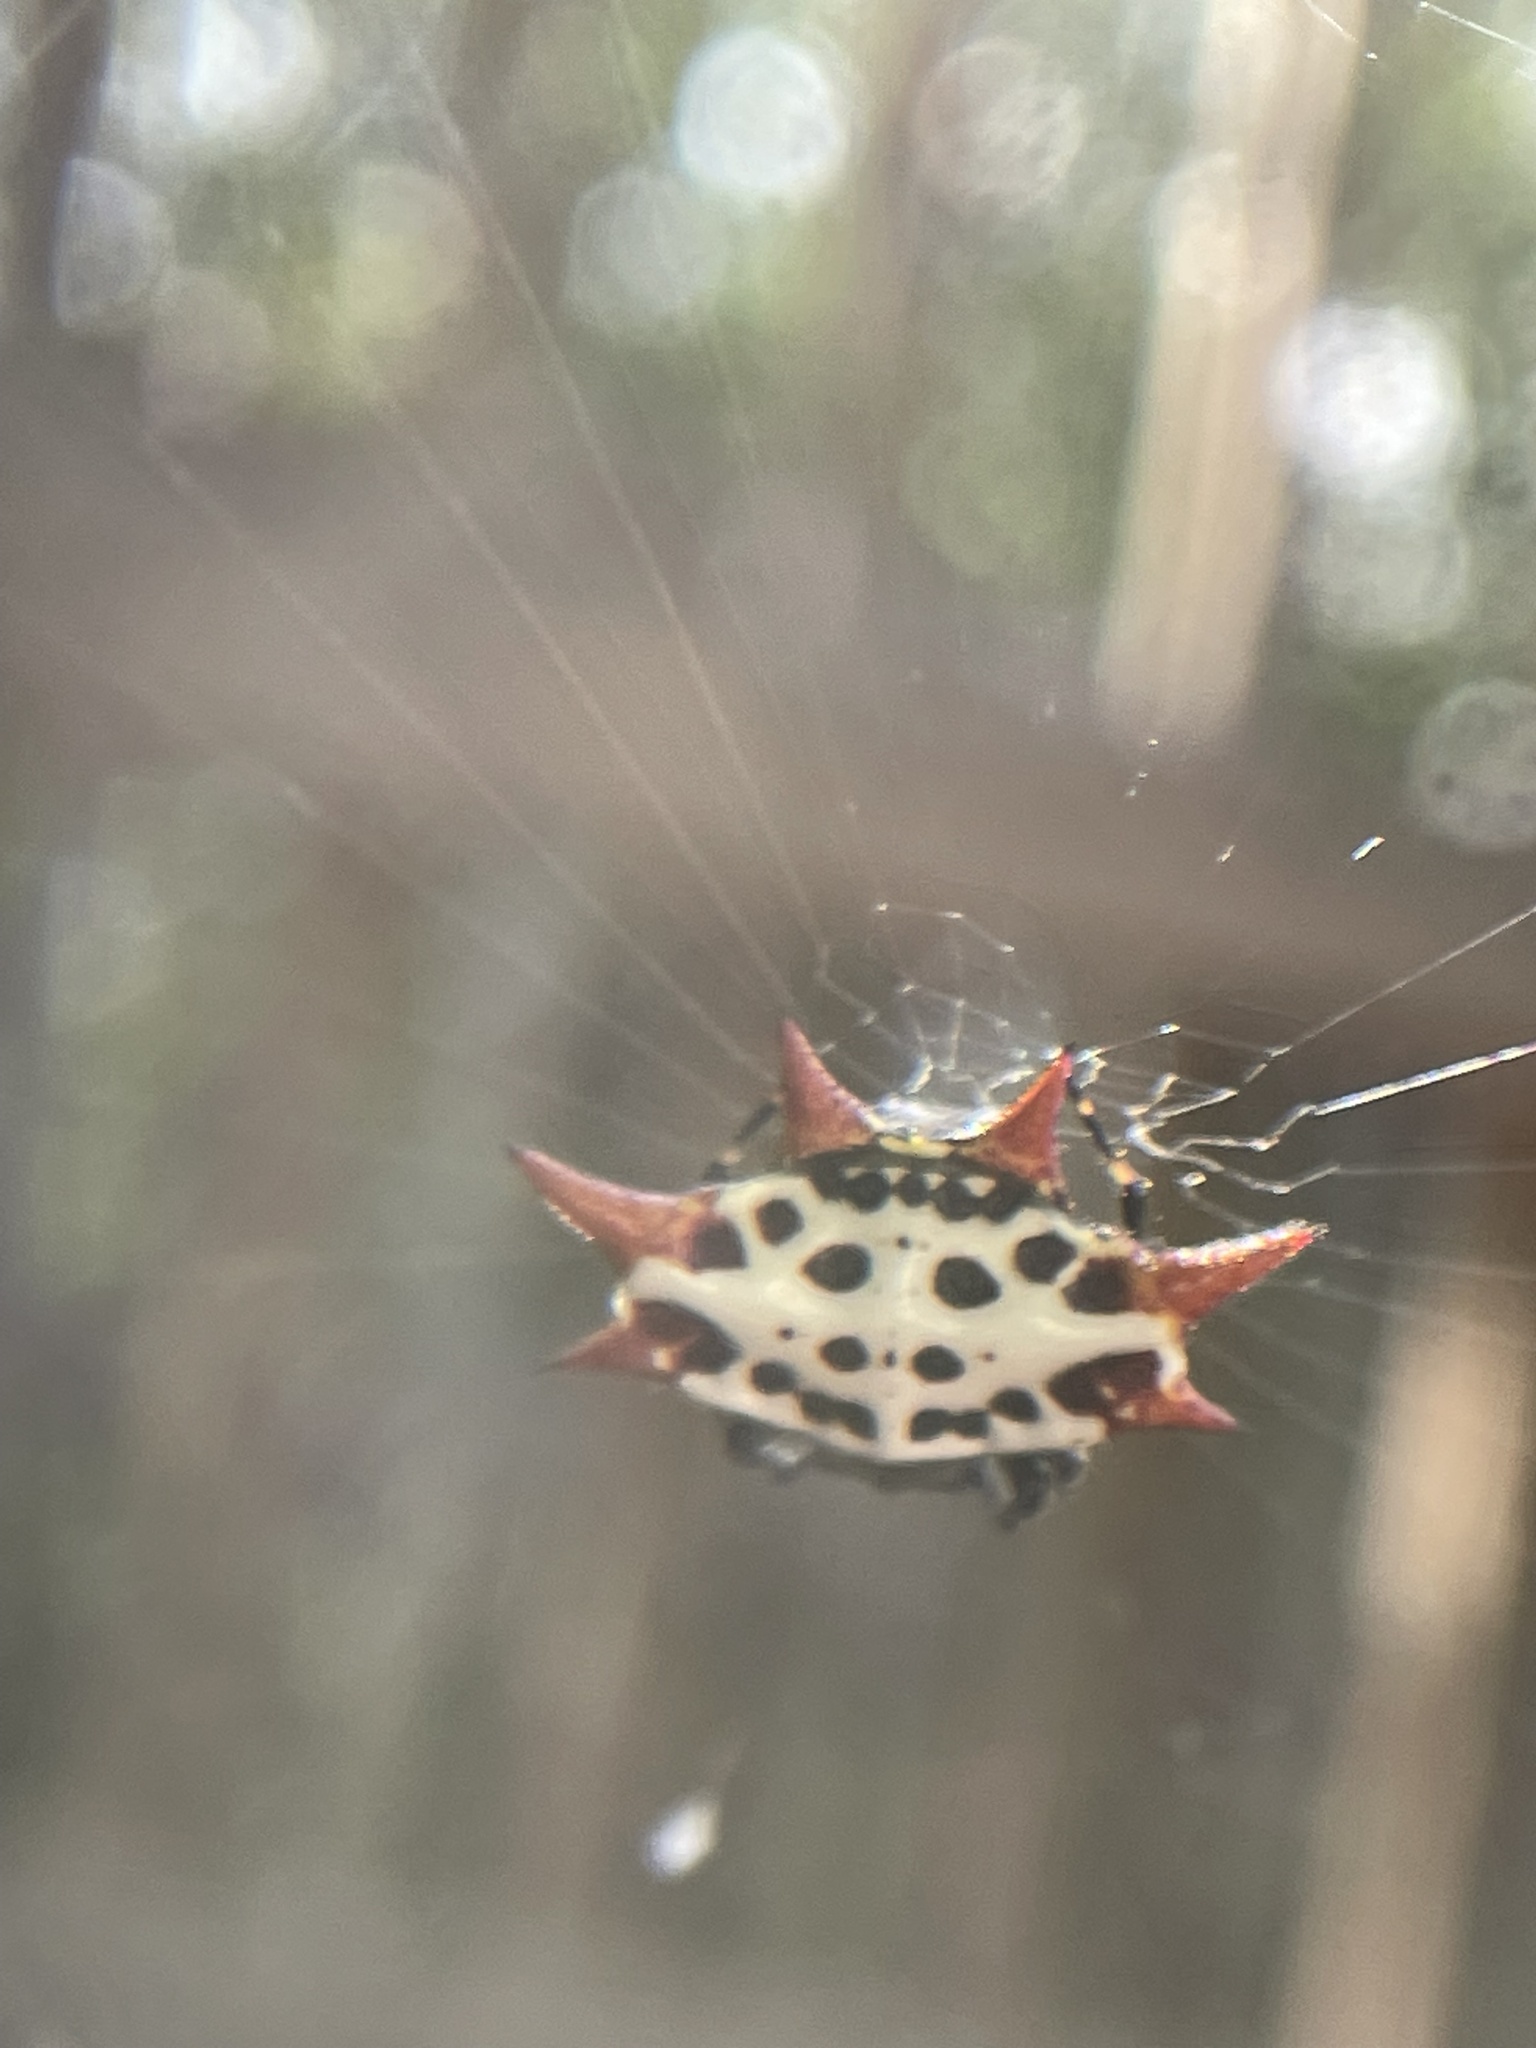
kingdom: Animalia
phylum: Arthropoda
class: Arachnida
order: Araneae
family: Araneidae
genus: Gasteracantha
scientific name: Gasteracantha cancriformis
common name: Orb weavers
